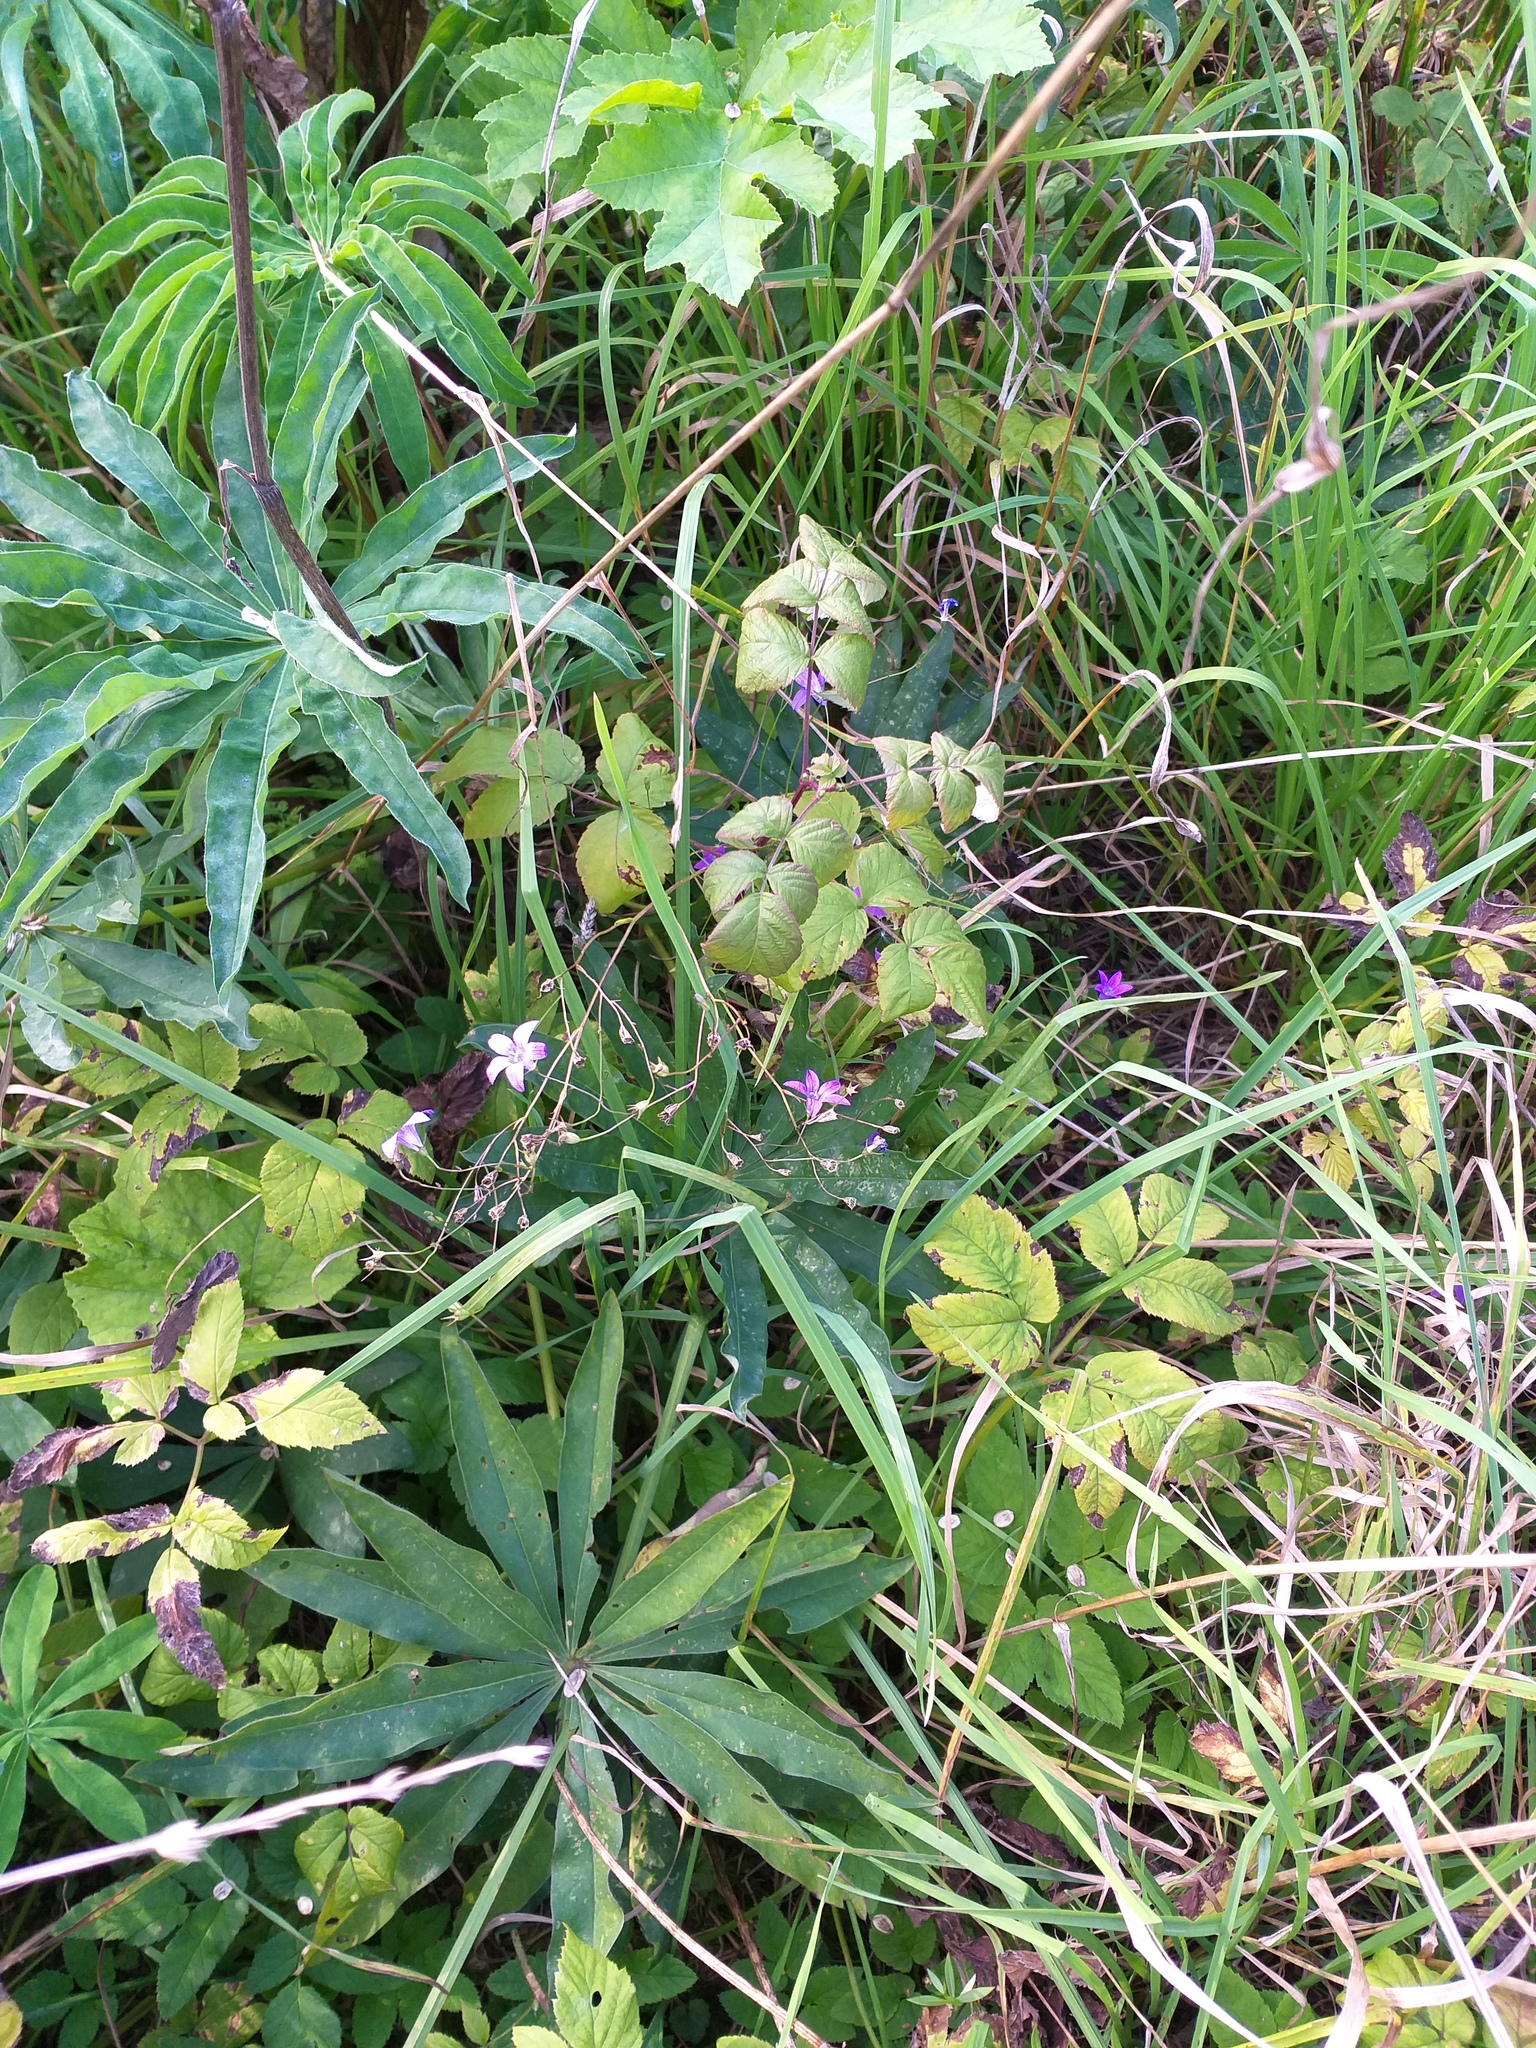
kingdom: Plantae
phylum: Tracheophyta
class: Magnoliopsida
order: Asterales
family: Campanulaceae
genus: Campanula
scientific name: Campanula patula
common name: Spreading bellflower
